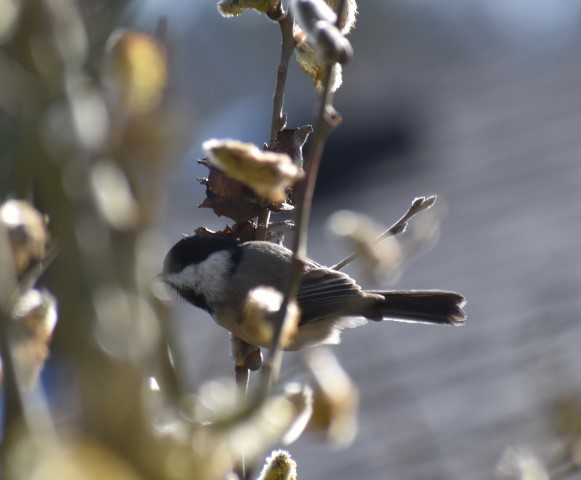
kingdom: Animalia
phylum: Chordata
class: Aves
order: Passeriformes
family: Paridae
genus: Poecile
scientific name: Poecile atricapillus
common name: Black-capped chickadee
